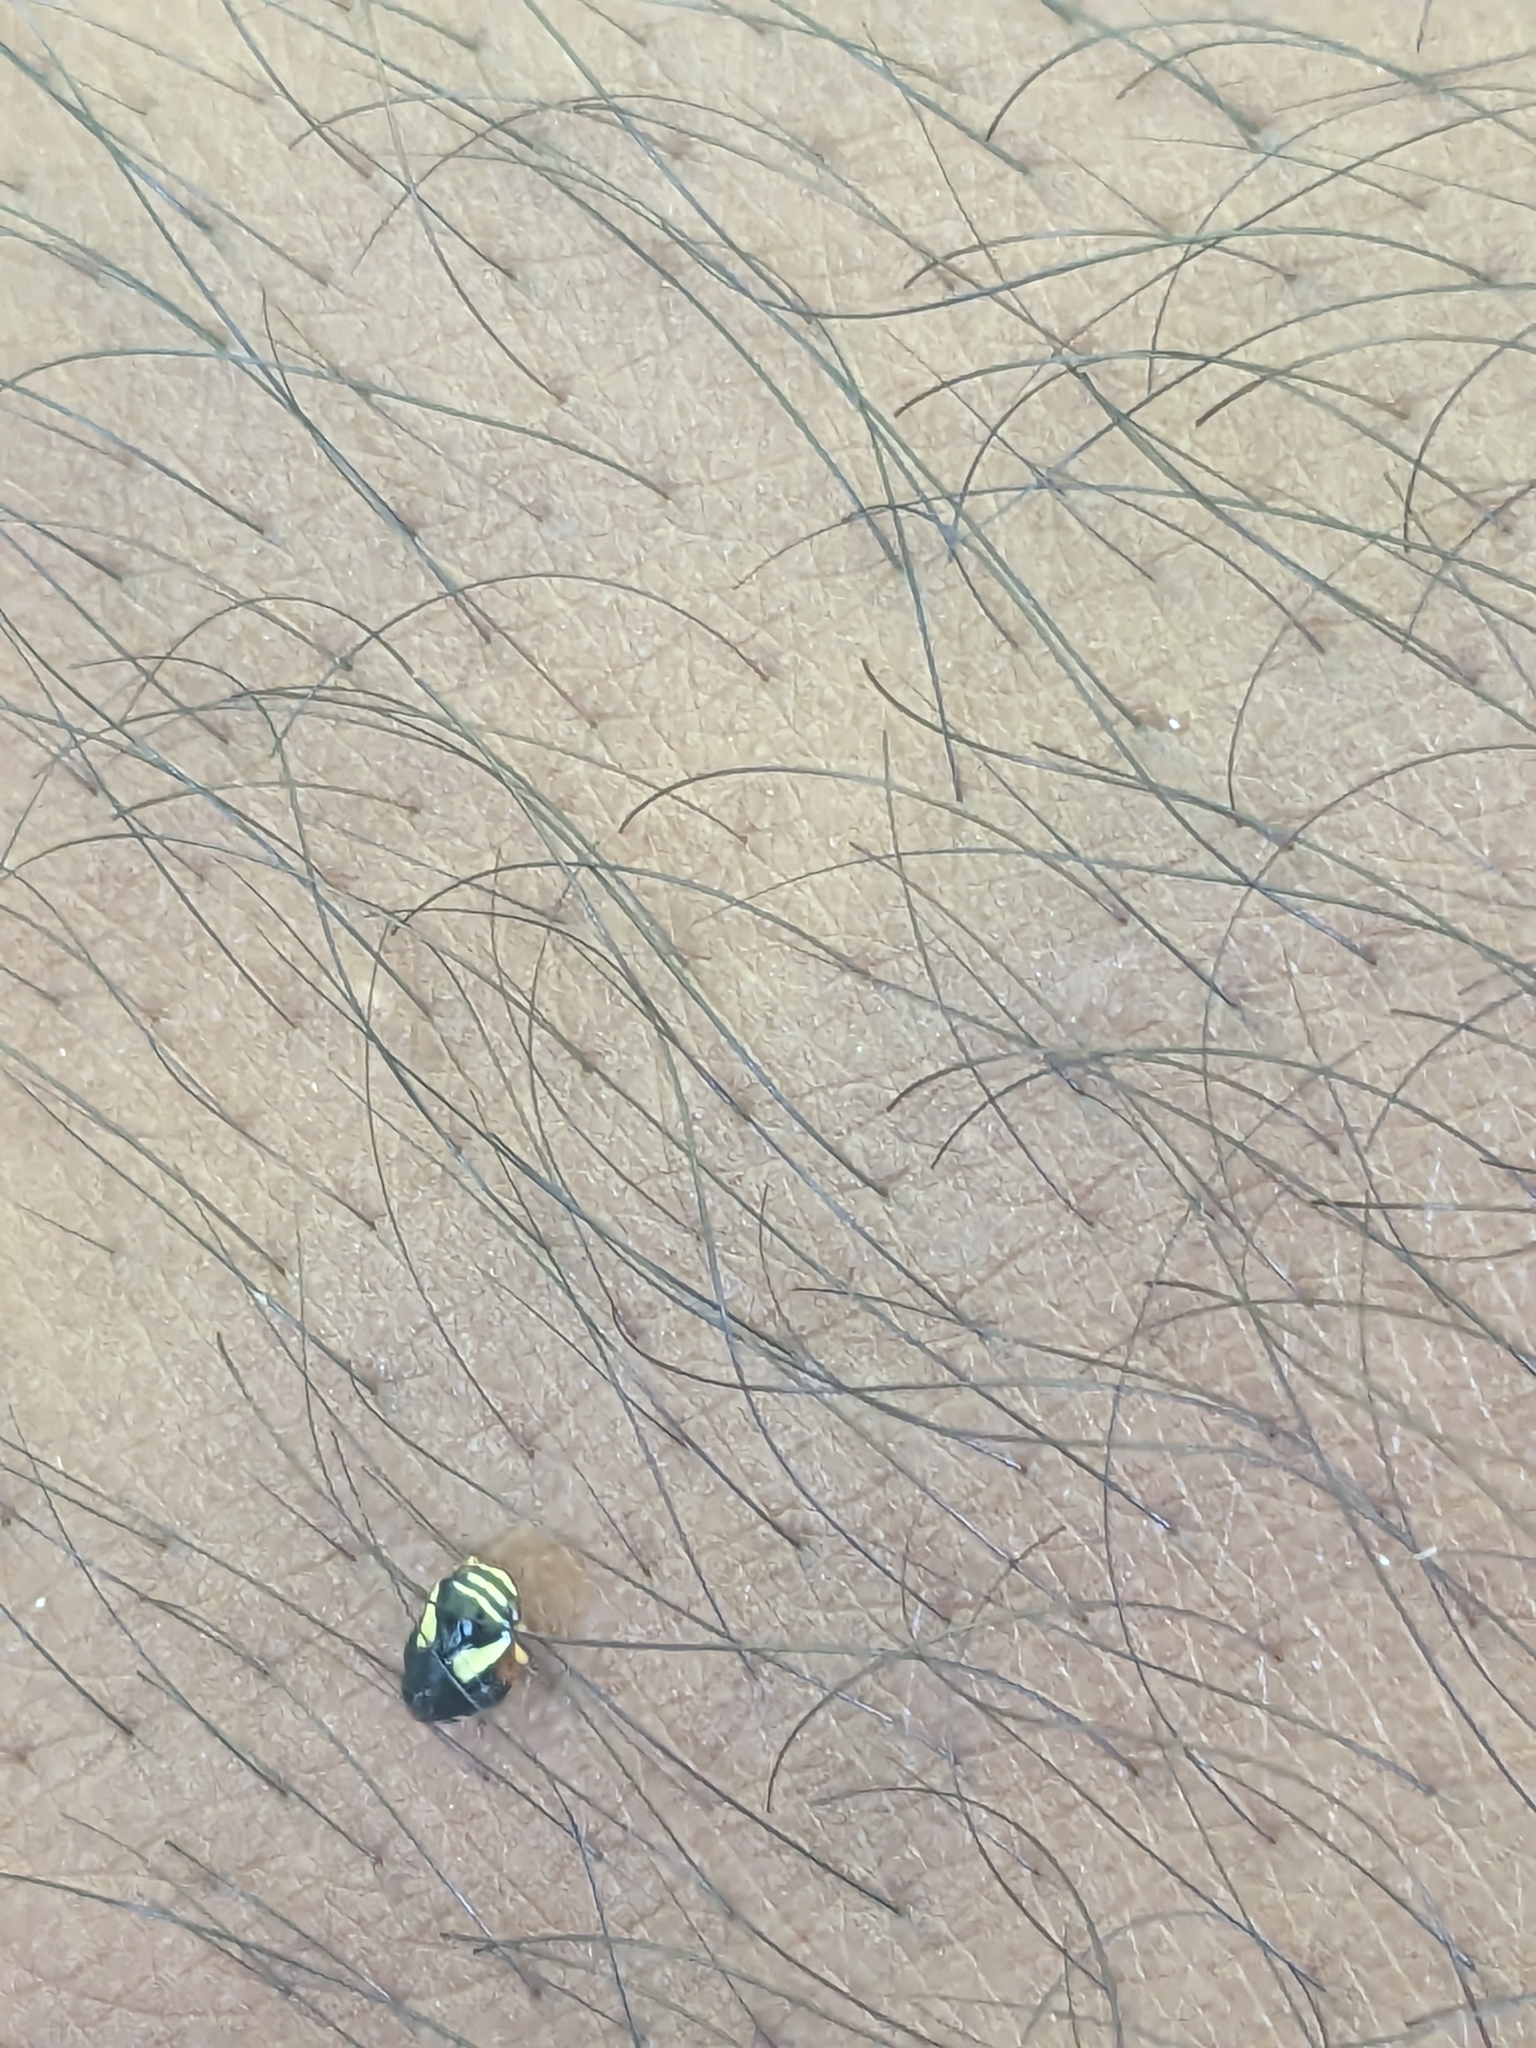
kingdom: Animalia
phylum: Arthropoda
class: Insecta
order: Hemiptera
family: Clastopteridae
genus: Clastoptera
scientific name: Clastoptera proteus
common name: Dogwood spittlebug
